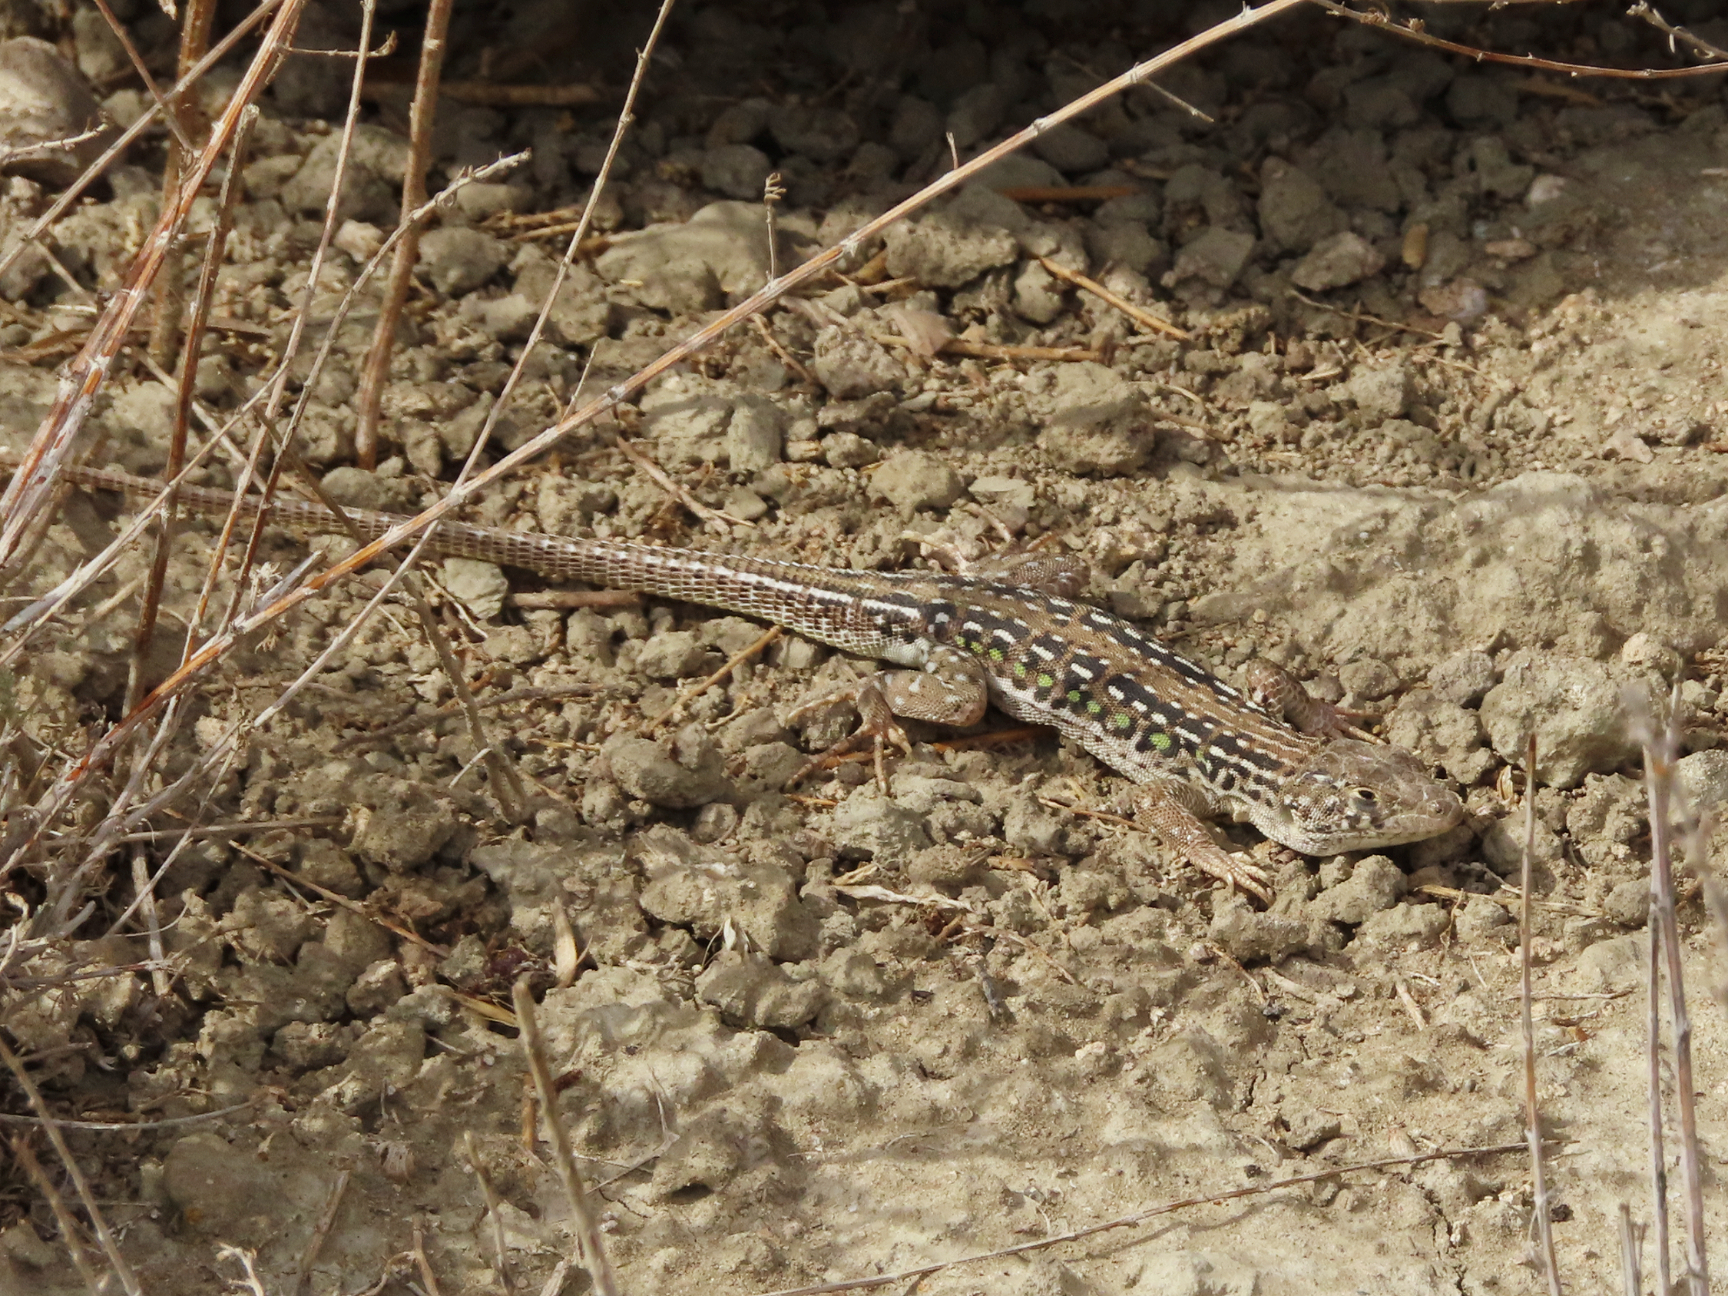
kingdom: Animalia
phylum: Chordata
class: Squamata
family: Lacertidae
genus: Eremias
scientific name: Eremias strauchi
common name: Strauch's racerunner
